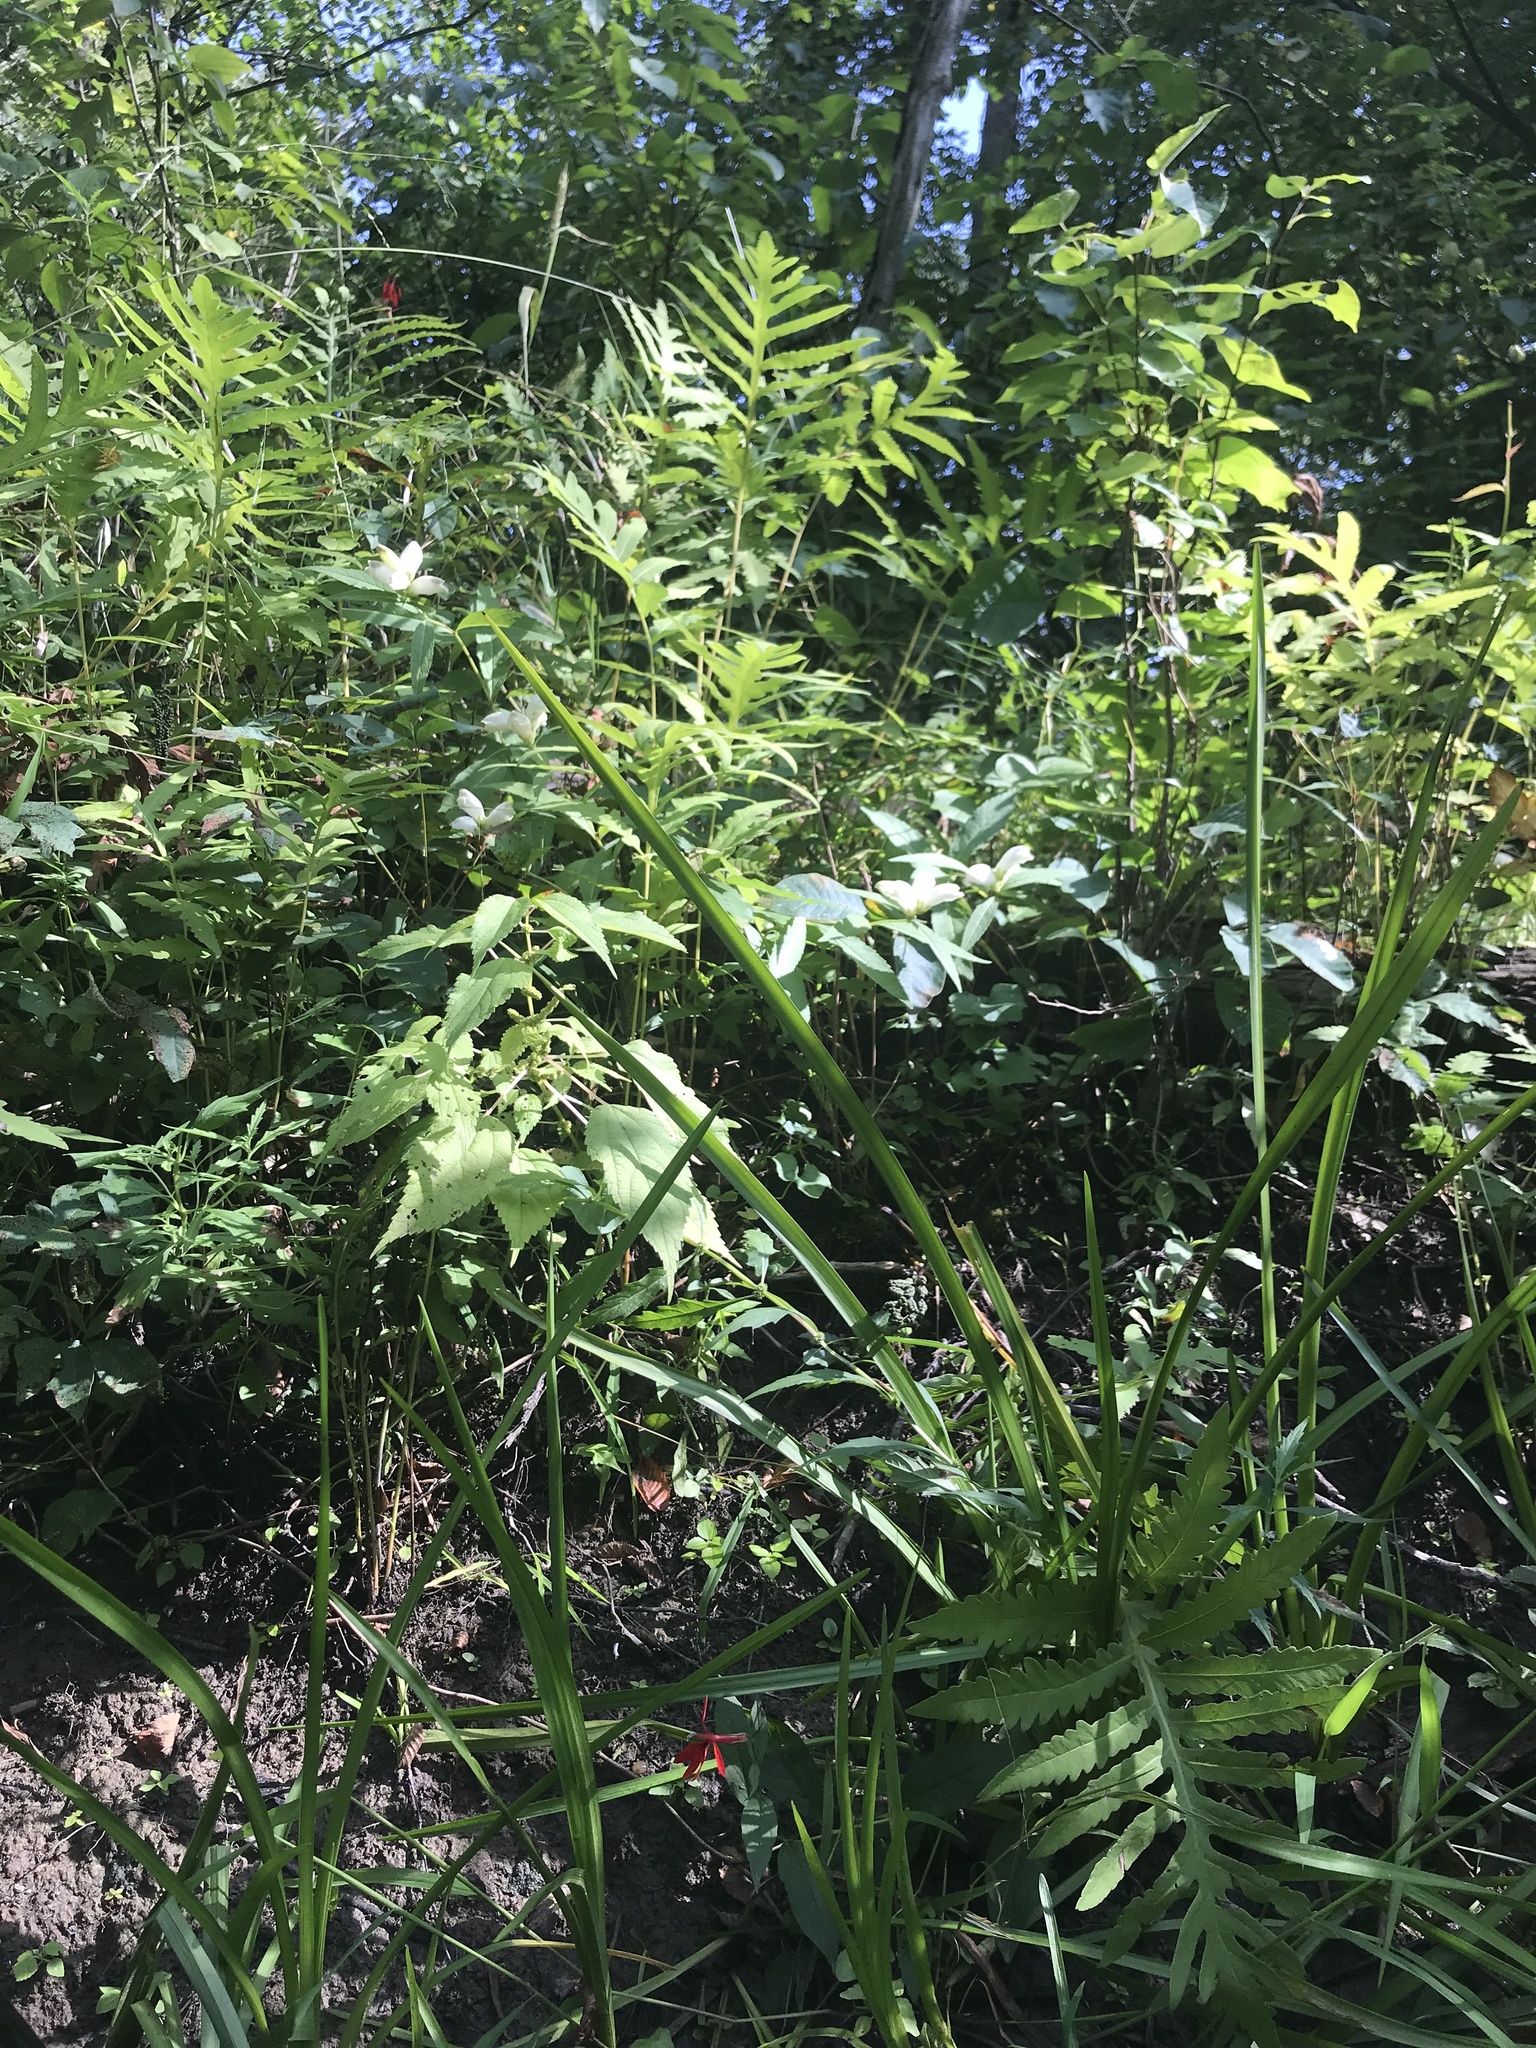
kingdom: Plantae
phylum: Tracheophyta
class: Magnoliopsida
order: Lamiales
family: Plantaginaceae
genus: Chelone
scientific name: Chelone glabra
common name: Snakehead
